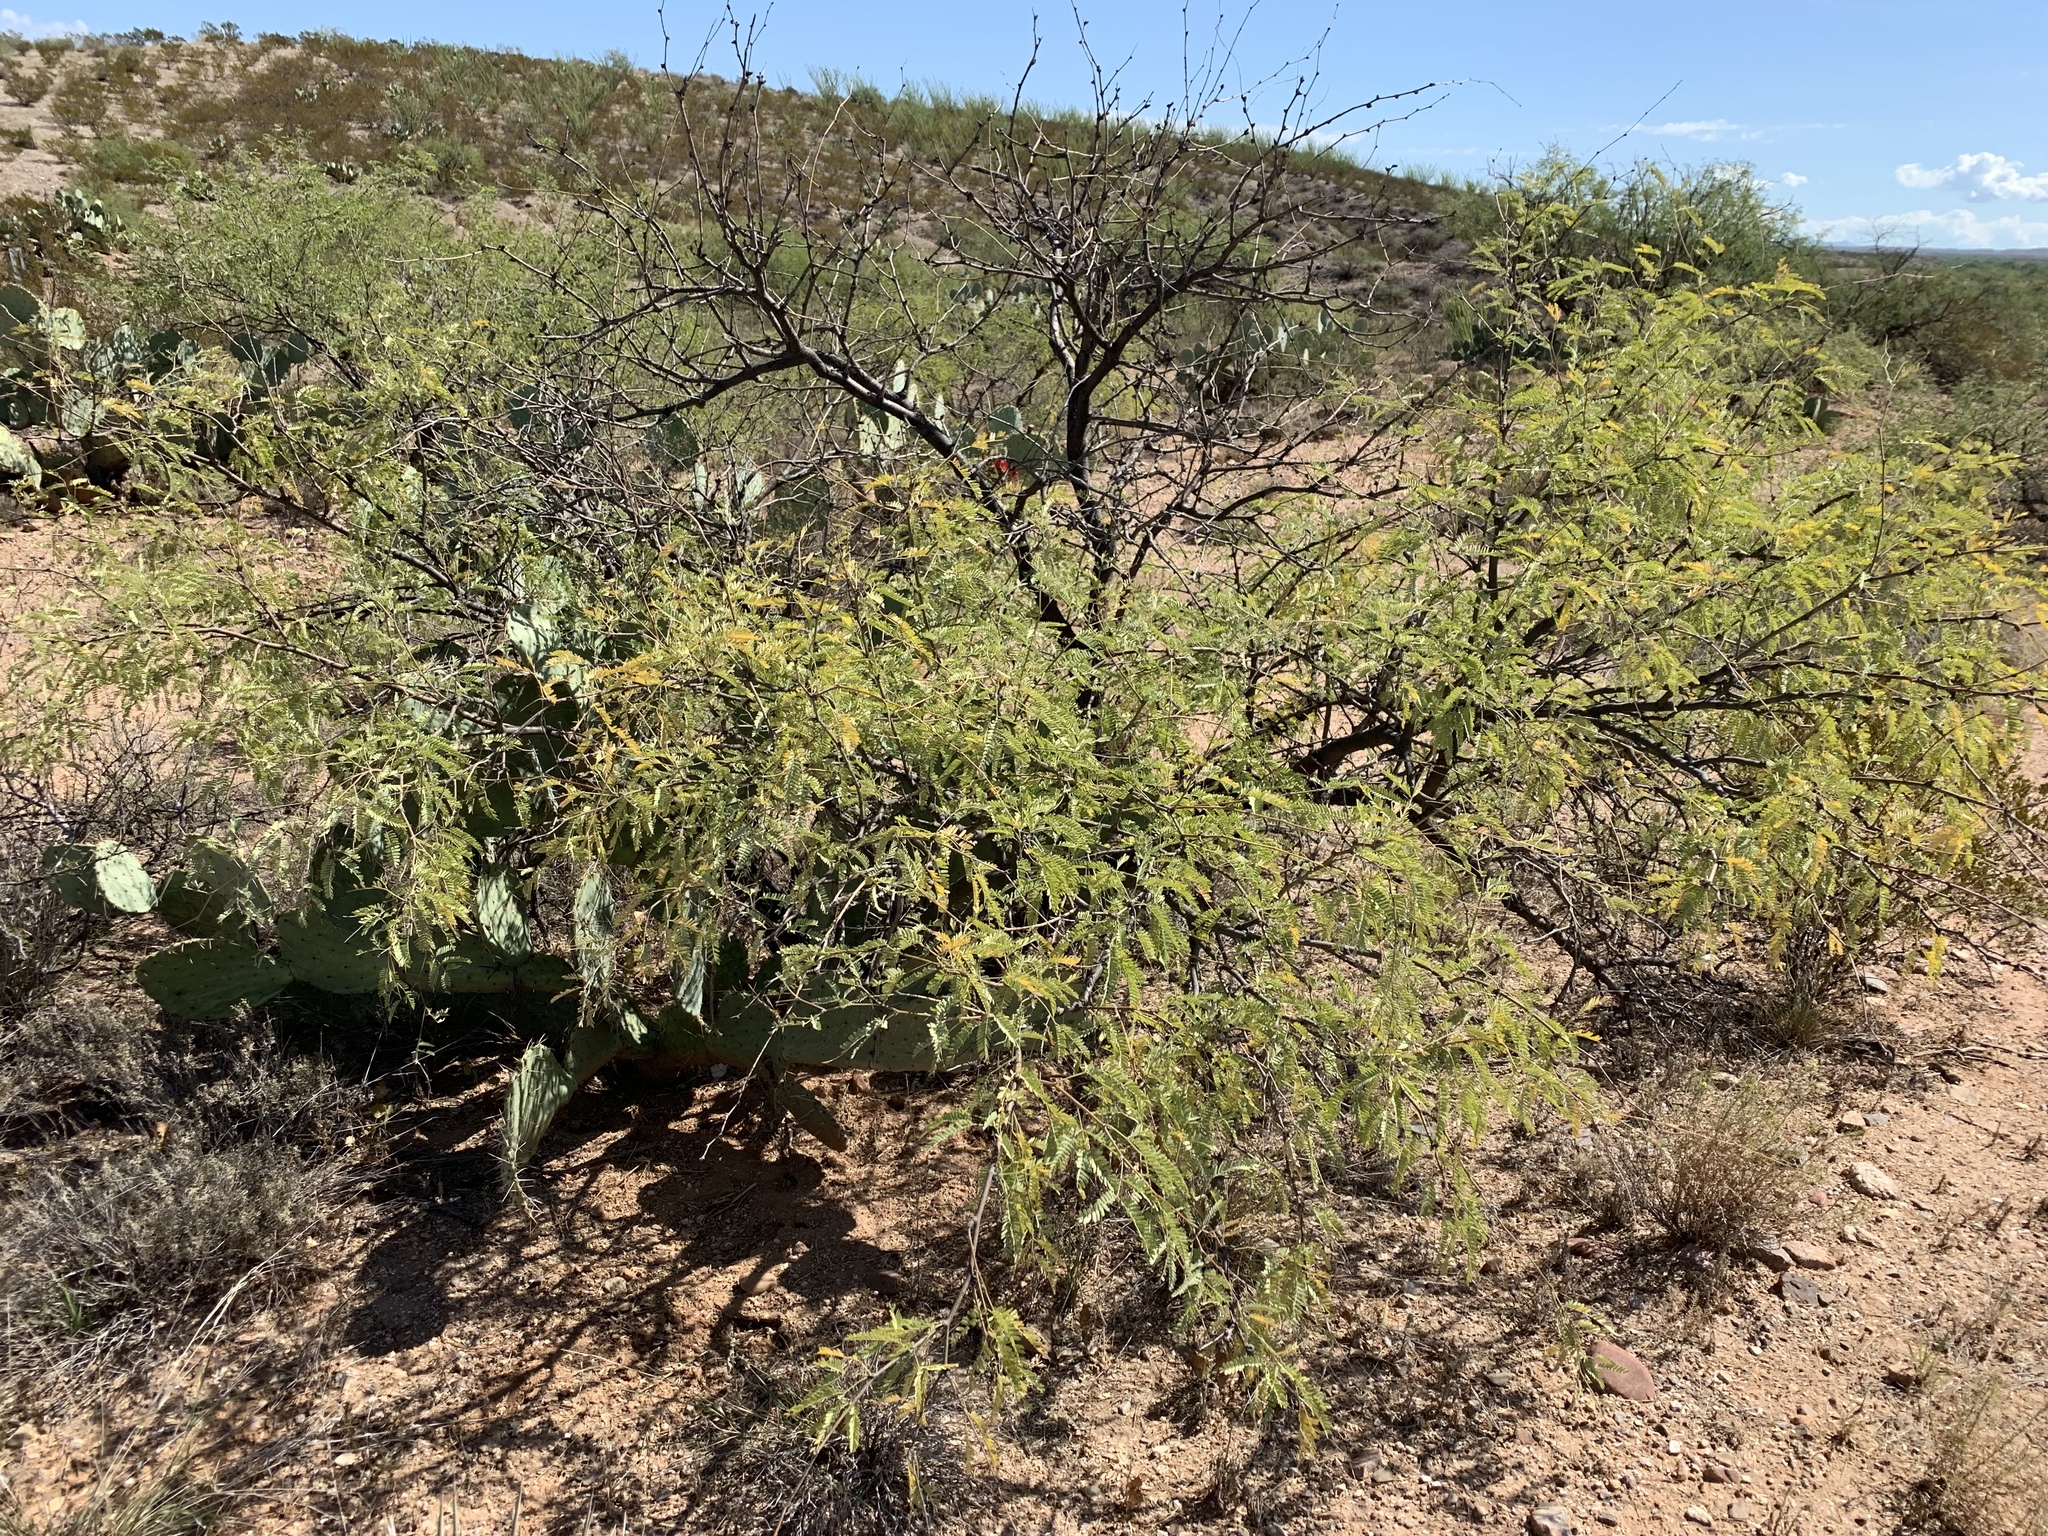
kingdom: Plantae
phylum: Tracheophyta
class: Magnoliopsida
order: Fabales
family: Fabaceae
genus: Prosopis
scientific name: Prosopis velutina
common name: Velvet mesquite
